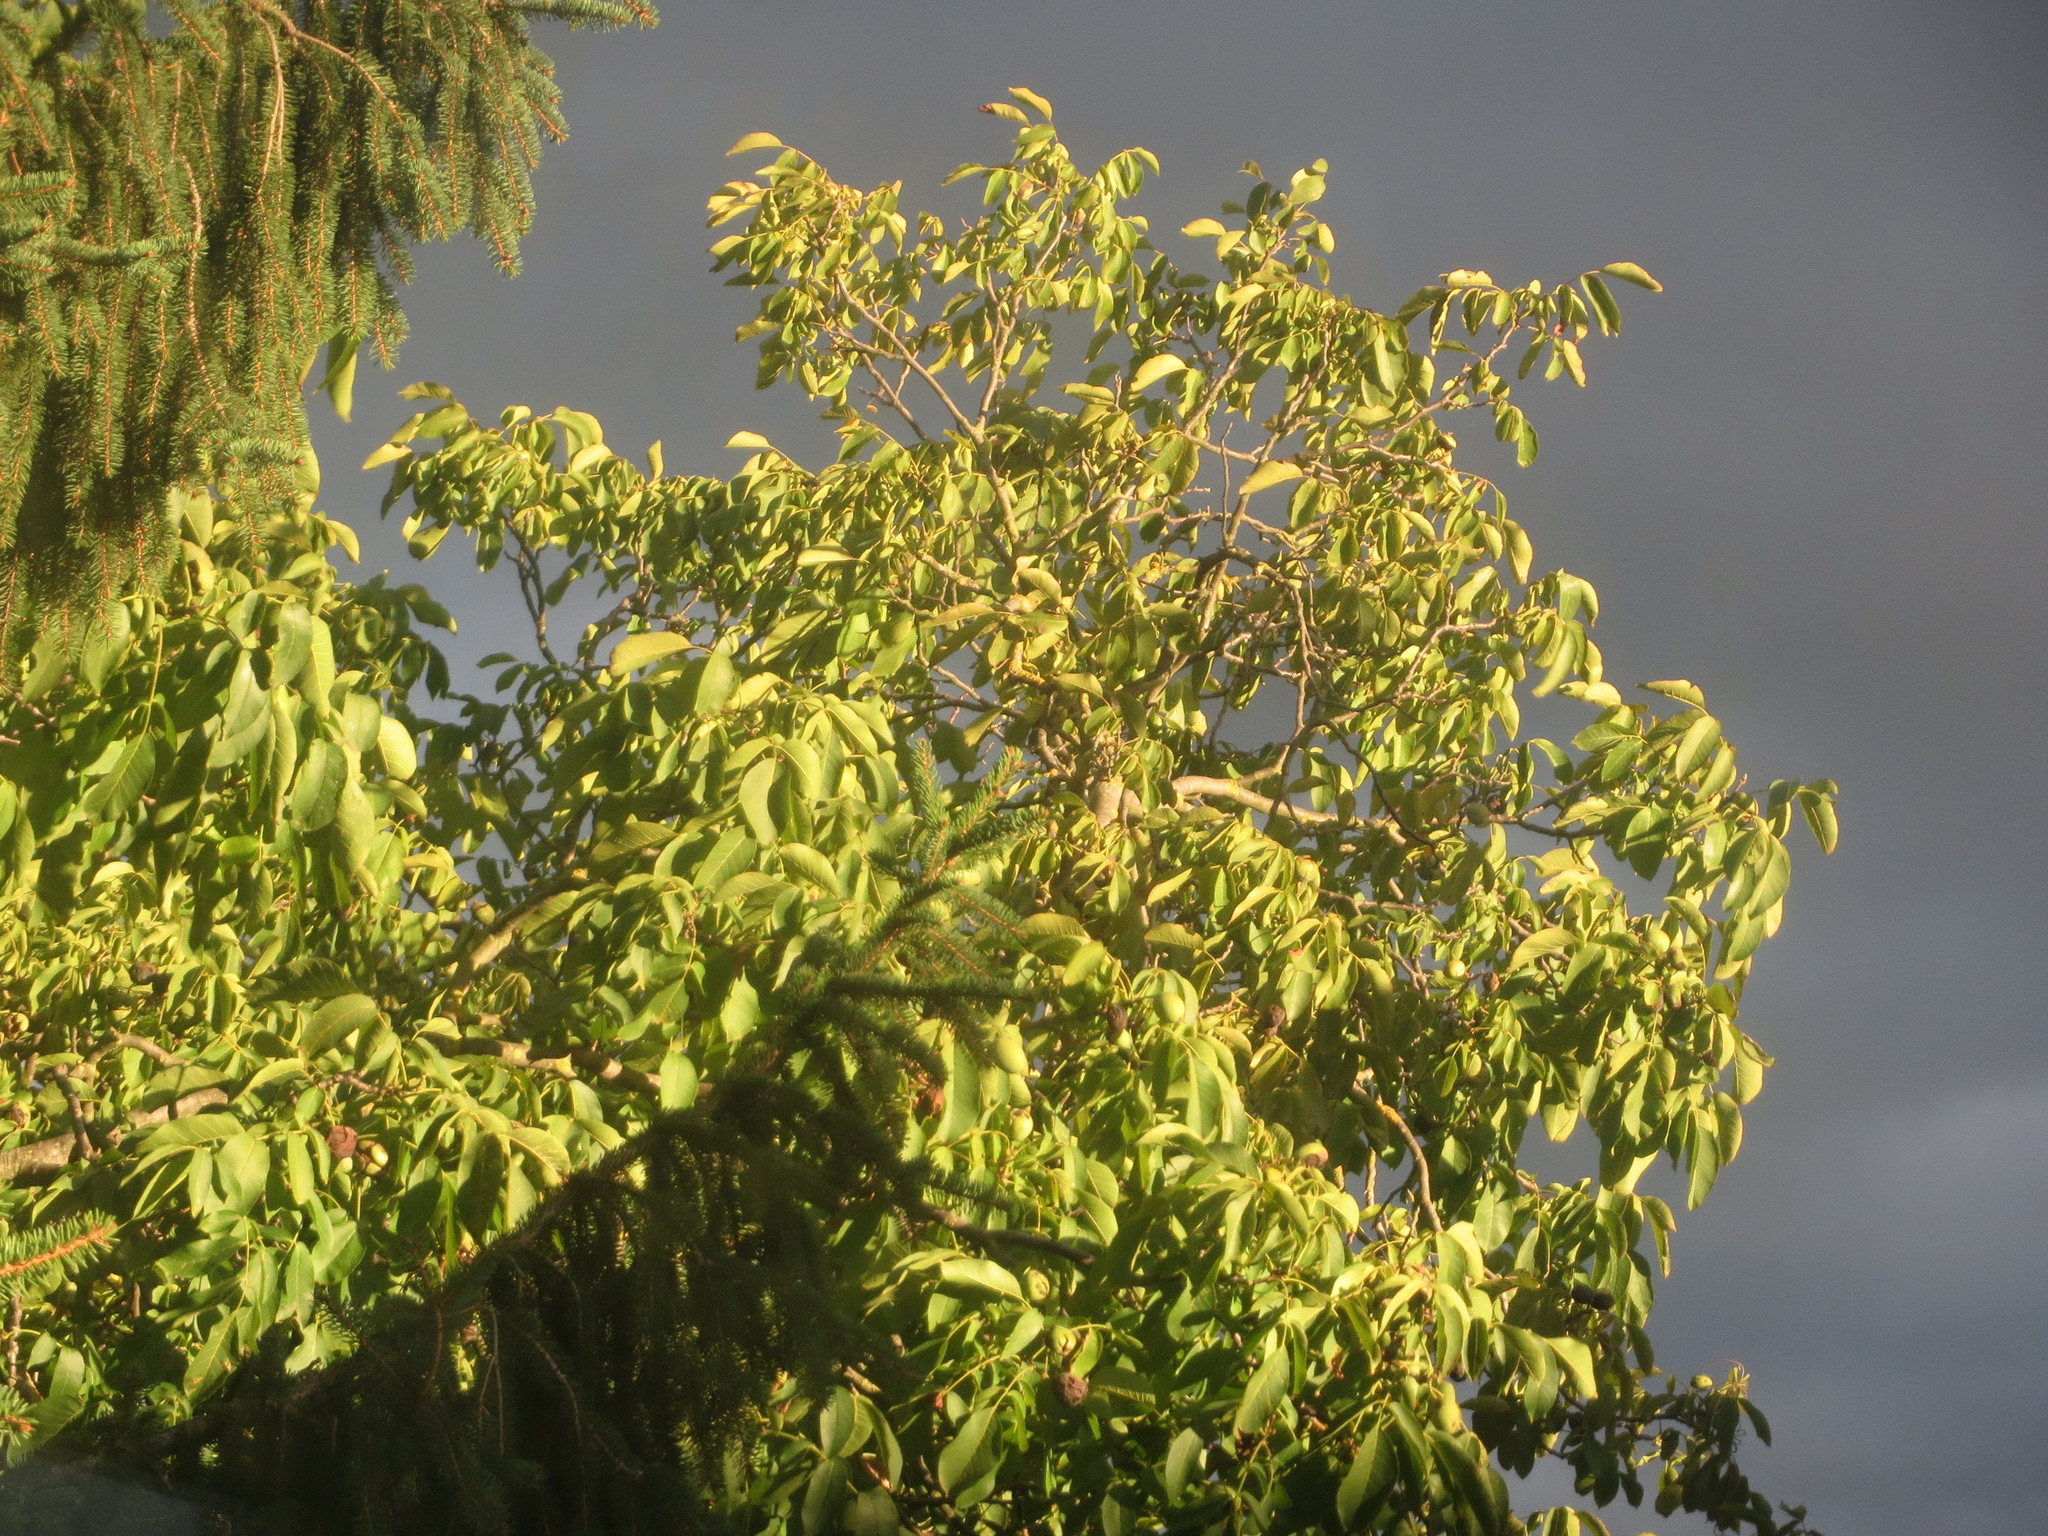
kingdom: Plantae
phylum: Tracheophyta
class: Magnoliopsida
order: Fagales
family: Juglandaceae
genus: Juglans
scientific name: Juglans regia
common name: Walnut
